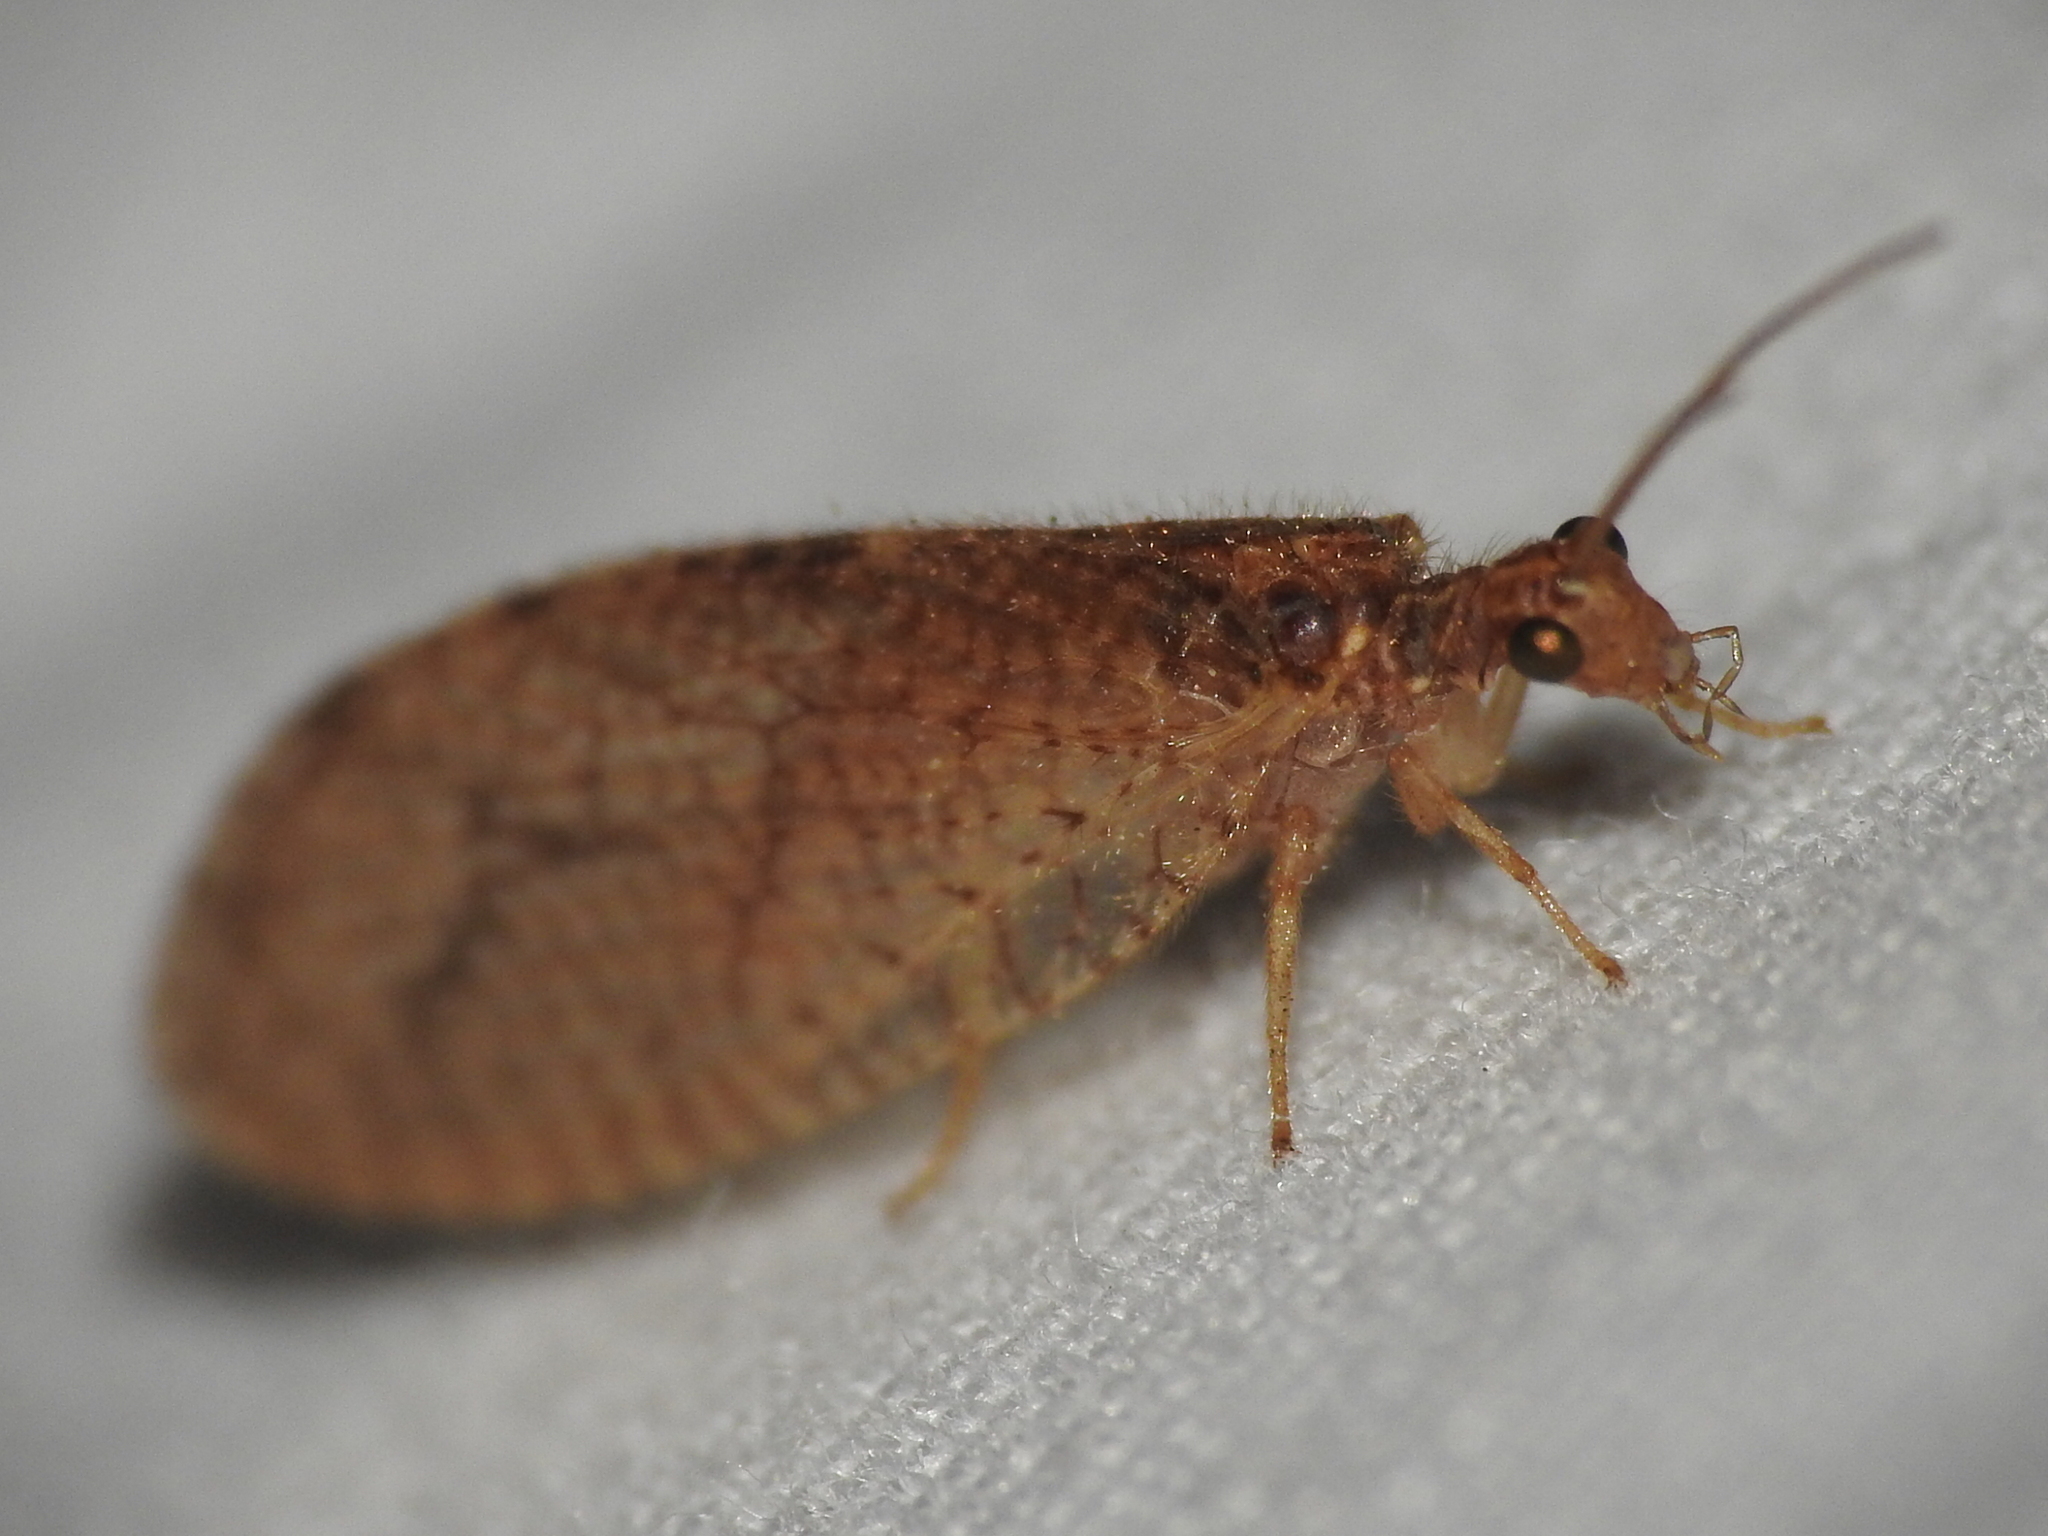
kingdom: Animalia
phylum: Arthropoda
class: Insecta
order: Neuroptera
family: Hemerobiidae
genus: Micromus
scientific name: Micromus posticus
